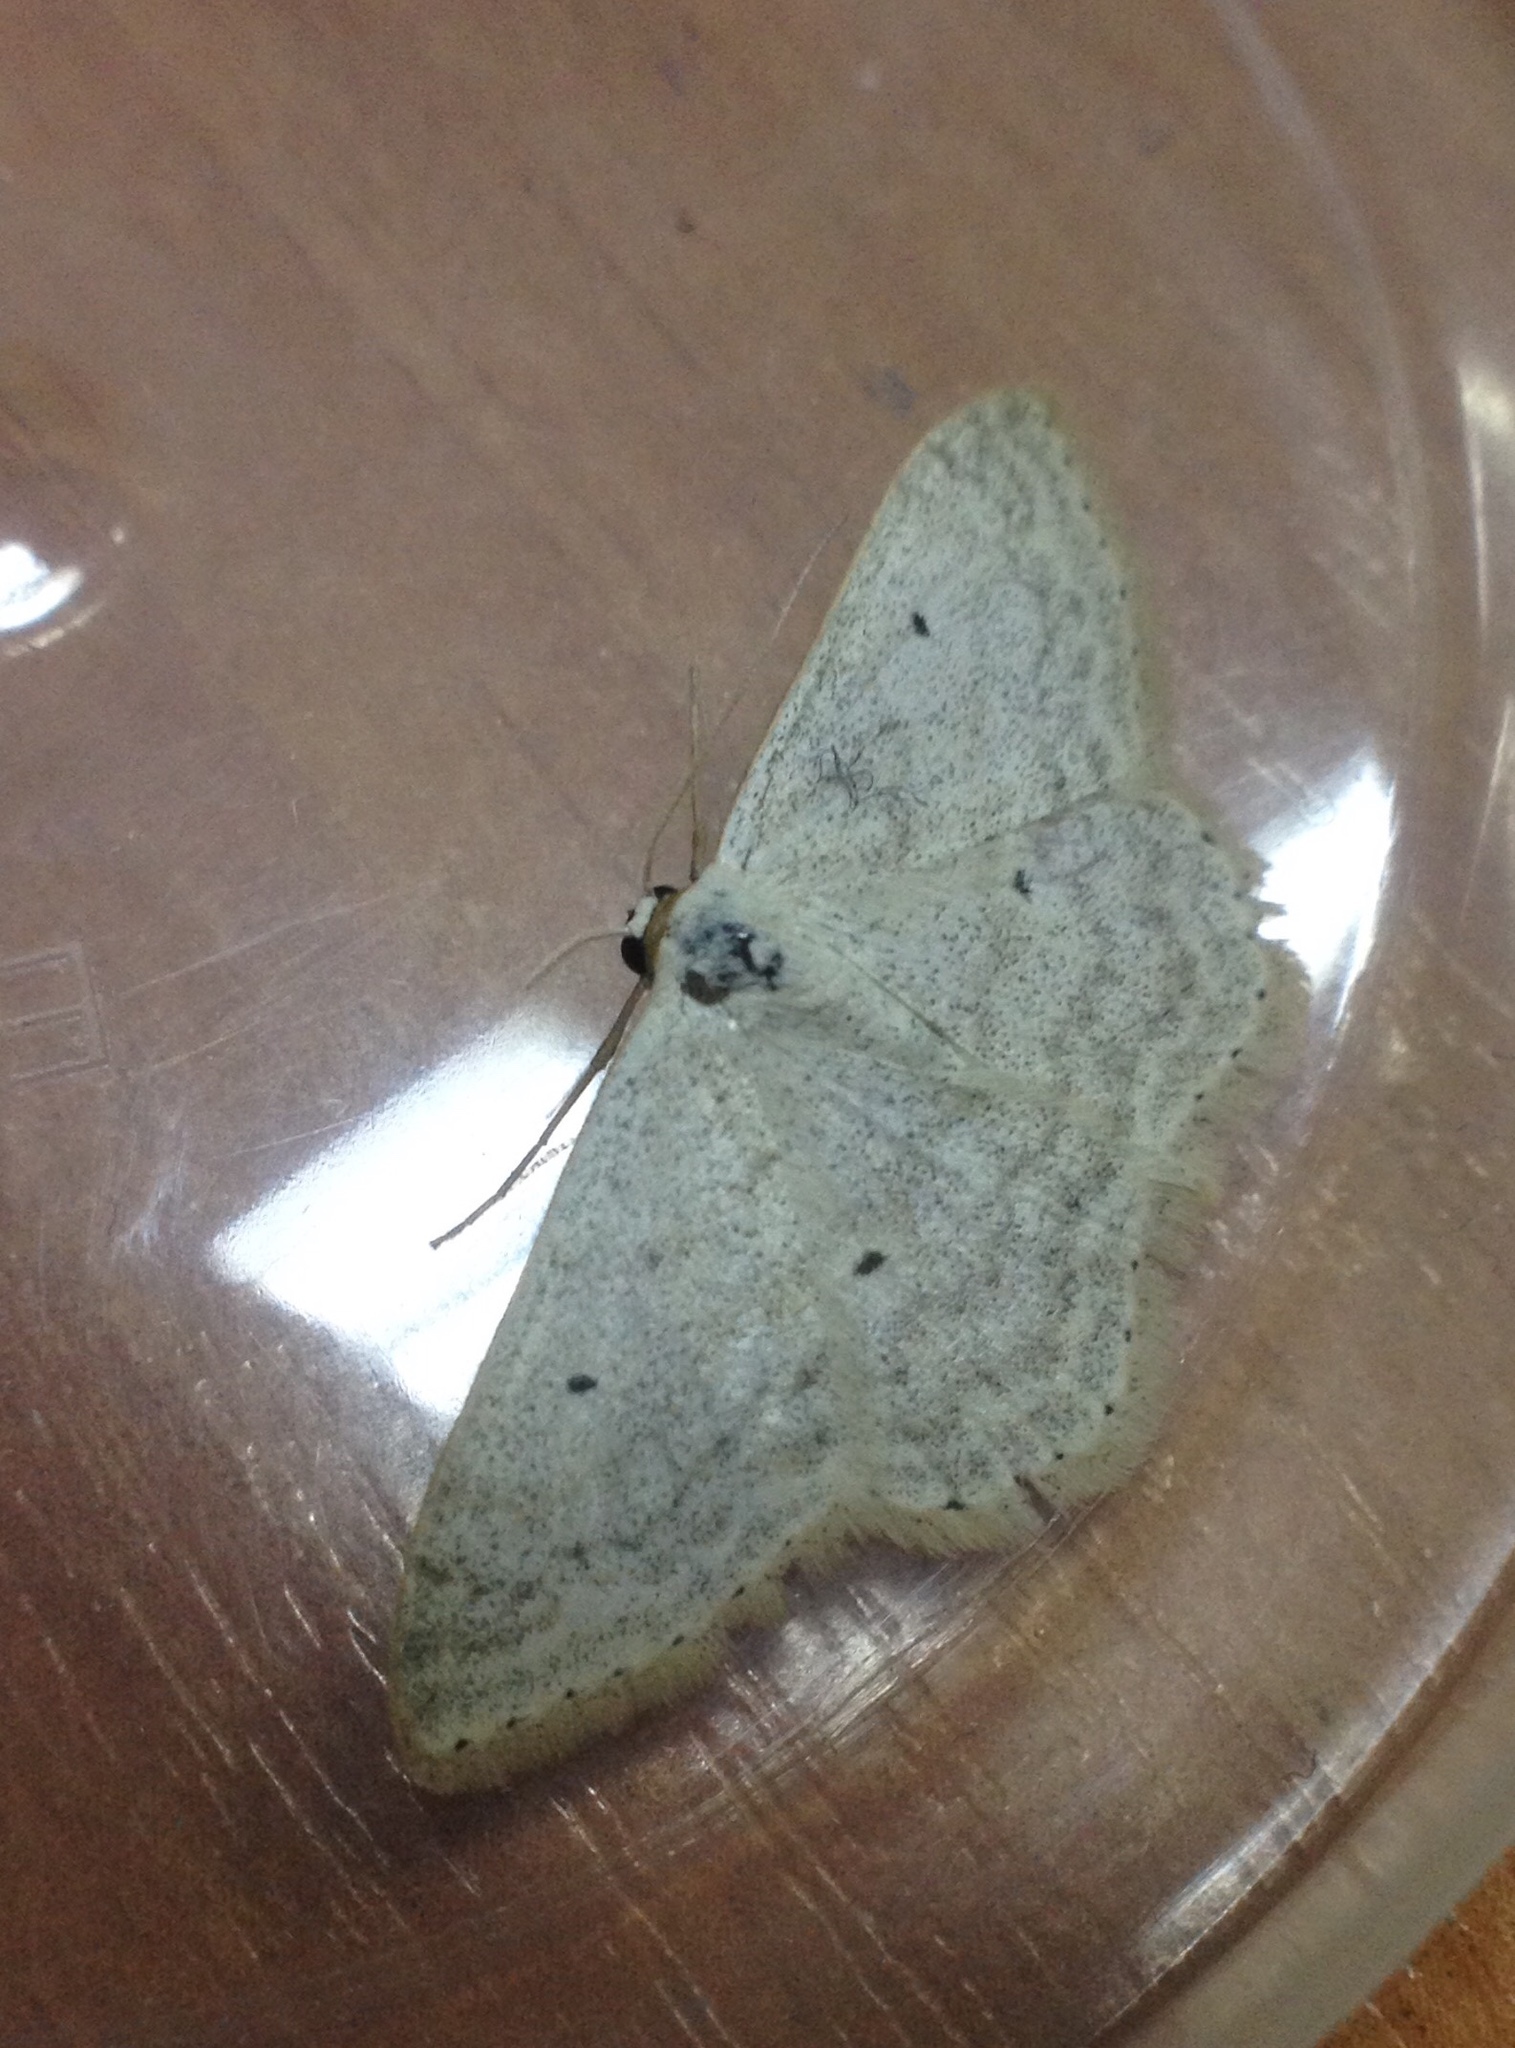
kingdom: Animalia
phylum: Arthropoda
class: Insecta
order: Lepidoptera
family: Geometridae
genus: Scopula
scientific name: Scopula incanata
